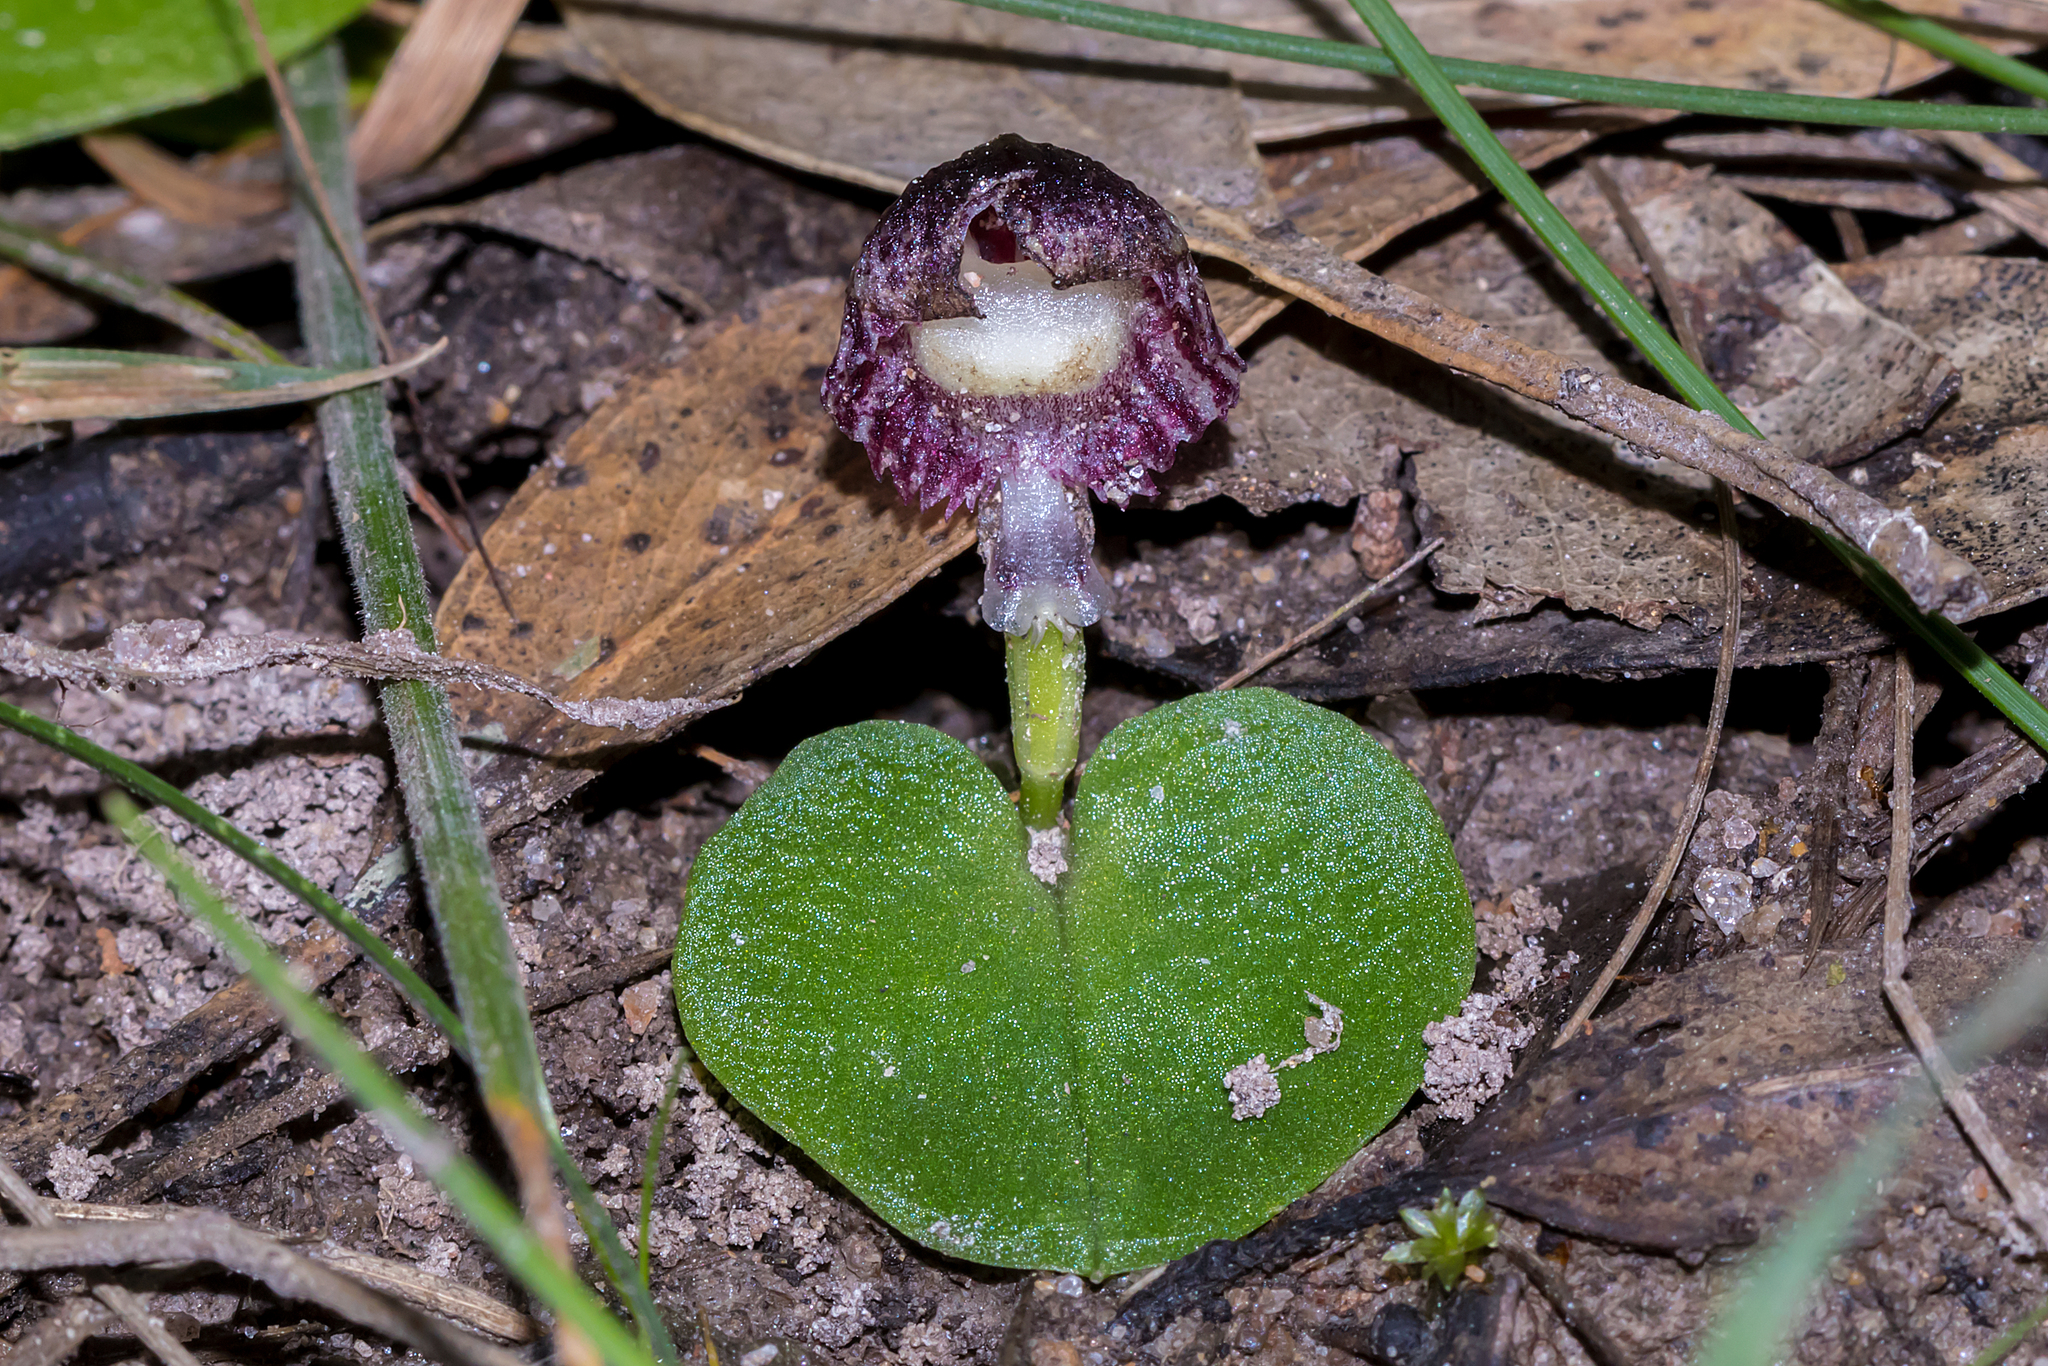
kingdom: Plantae
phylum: Tracheophyta
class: Liliopsida
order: Asparagales
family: Orchidaceae
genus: Corybas
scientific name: Corybas diemenicus
